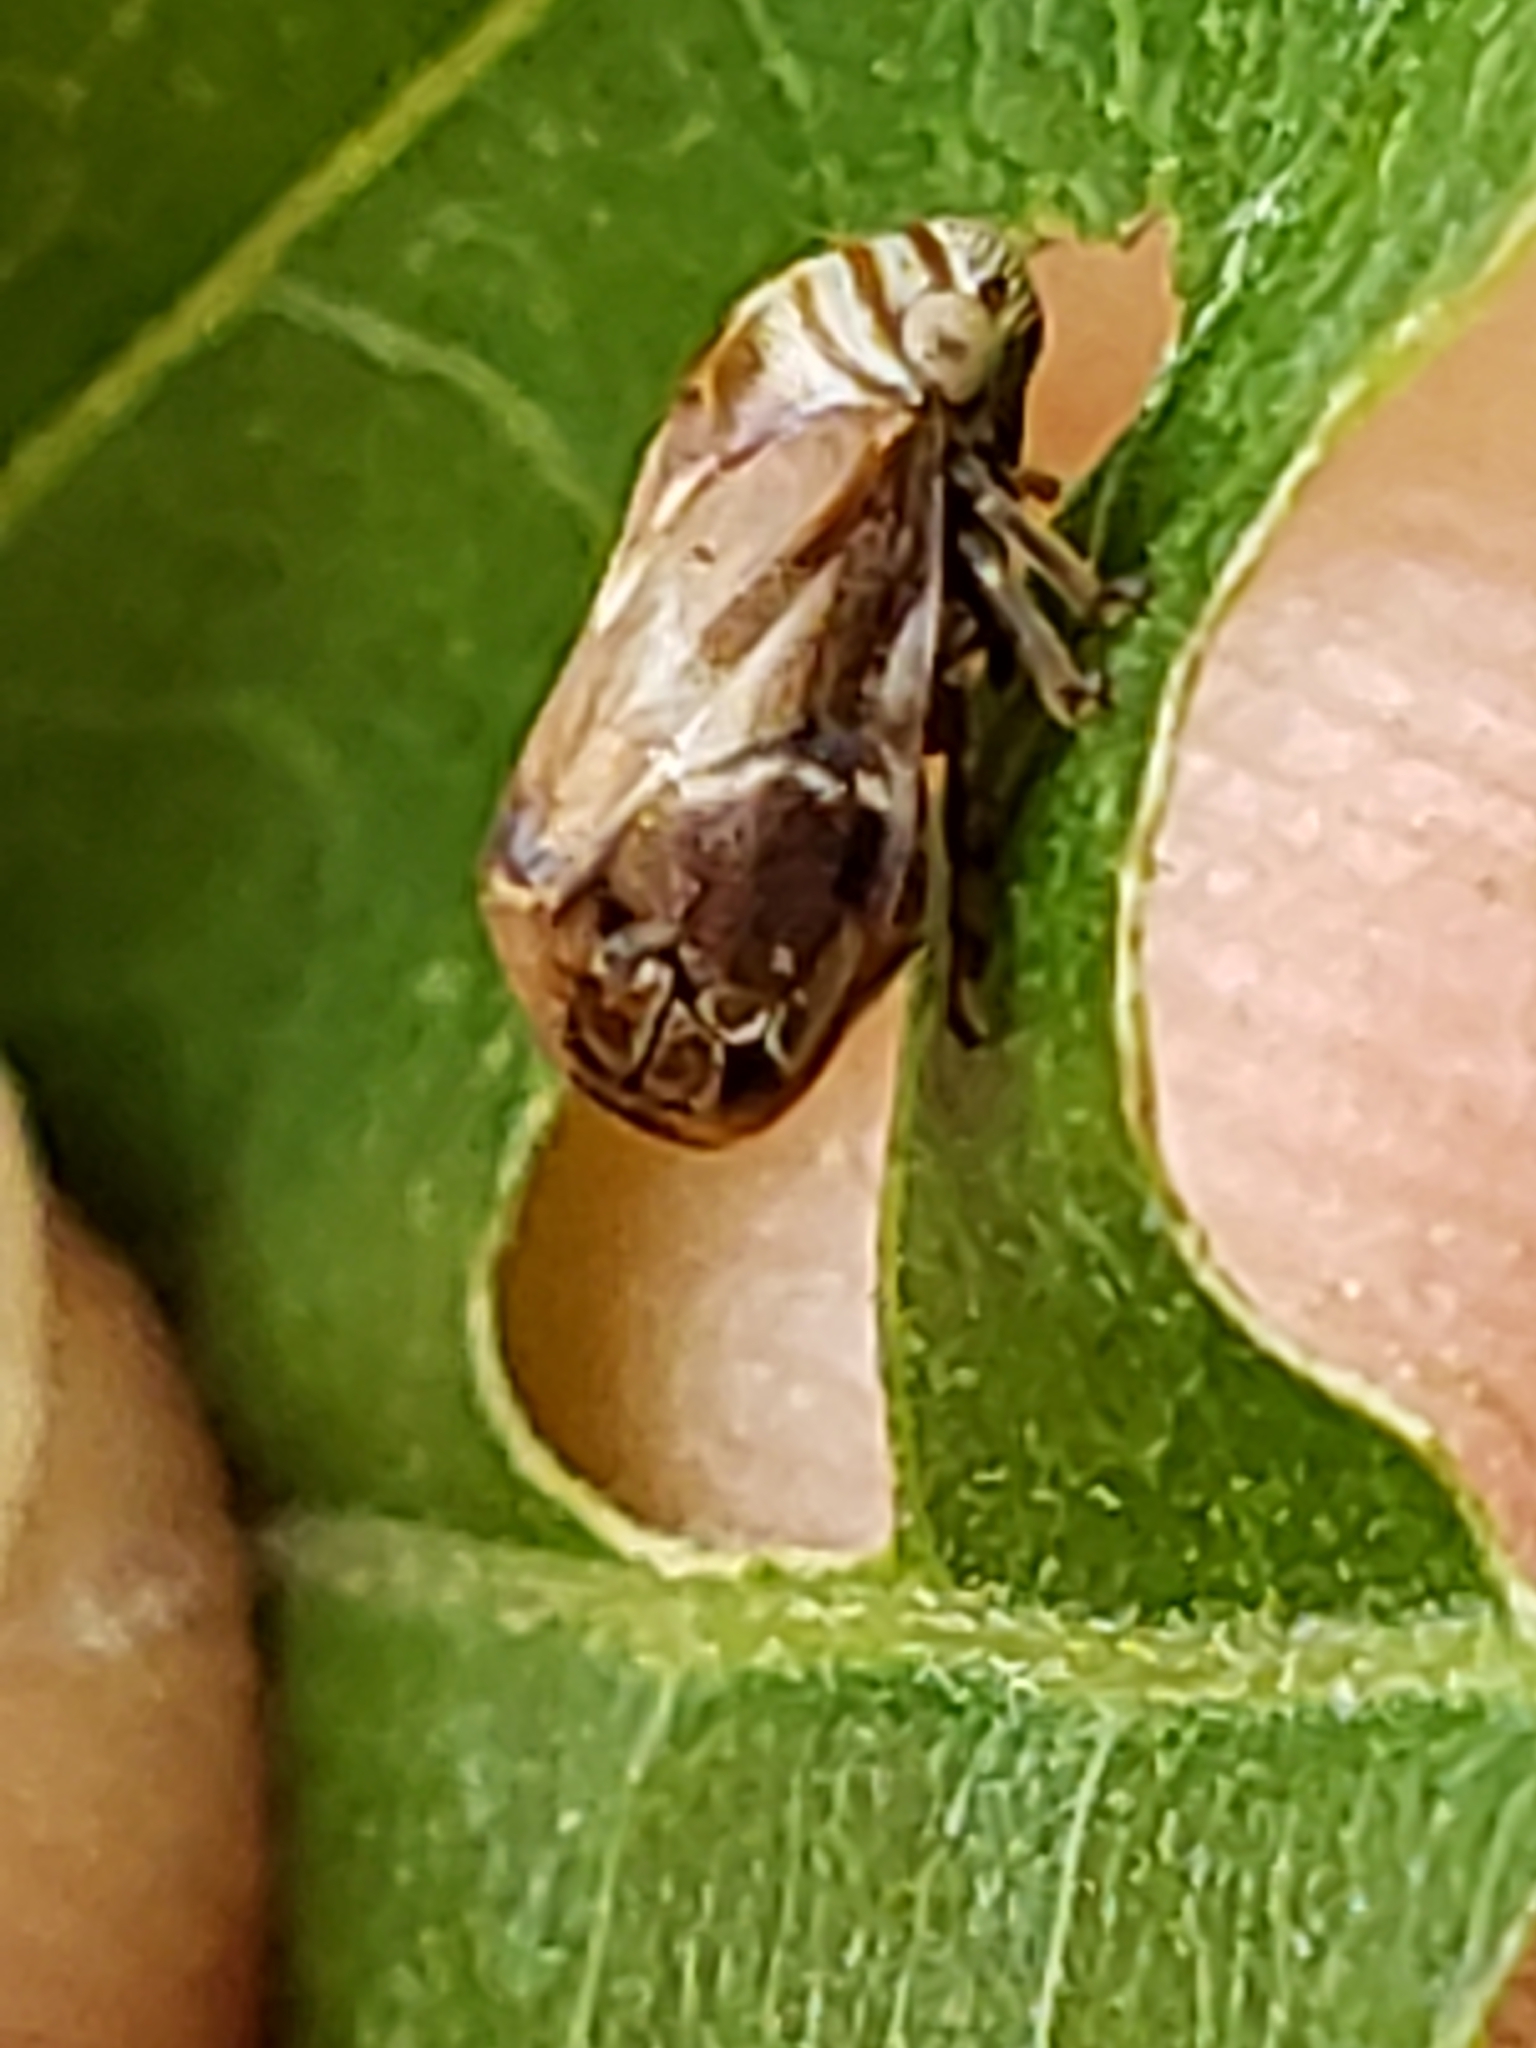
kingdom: Animalia
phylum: Arthropoda
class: Insecta
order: Hemiptera
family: Clastopteridae
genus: Clastoptera
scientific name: Clastoptera obtusa
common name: Alder spittlebug
